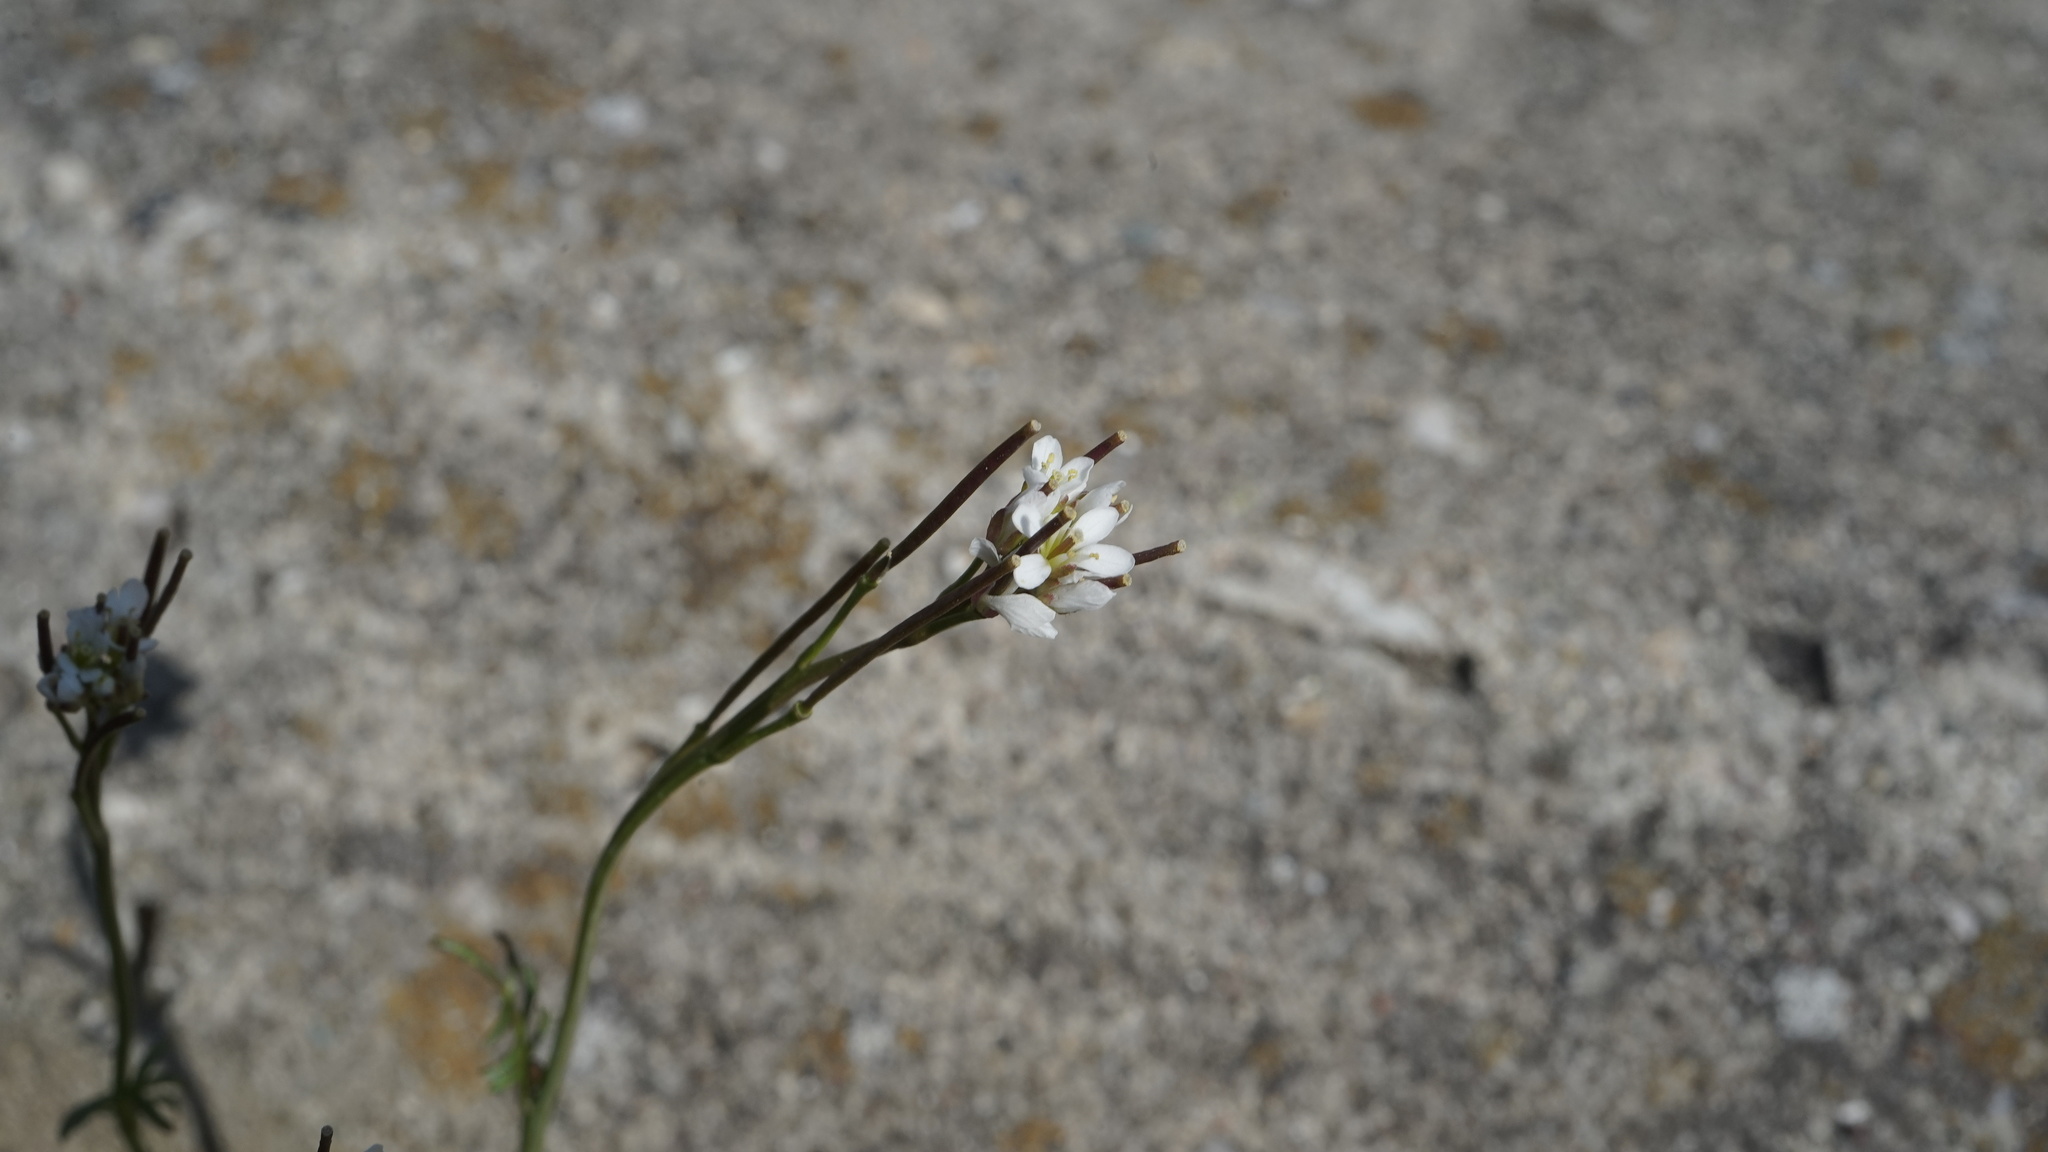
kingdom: Plantae
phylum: Tracheophyta
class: Magnoliopsida
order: Brassicales
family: Brassicaceae
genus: Cardamine
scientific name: Cardamine hirsuta
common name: Hairy bittercress
